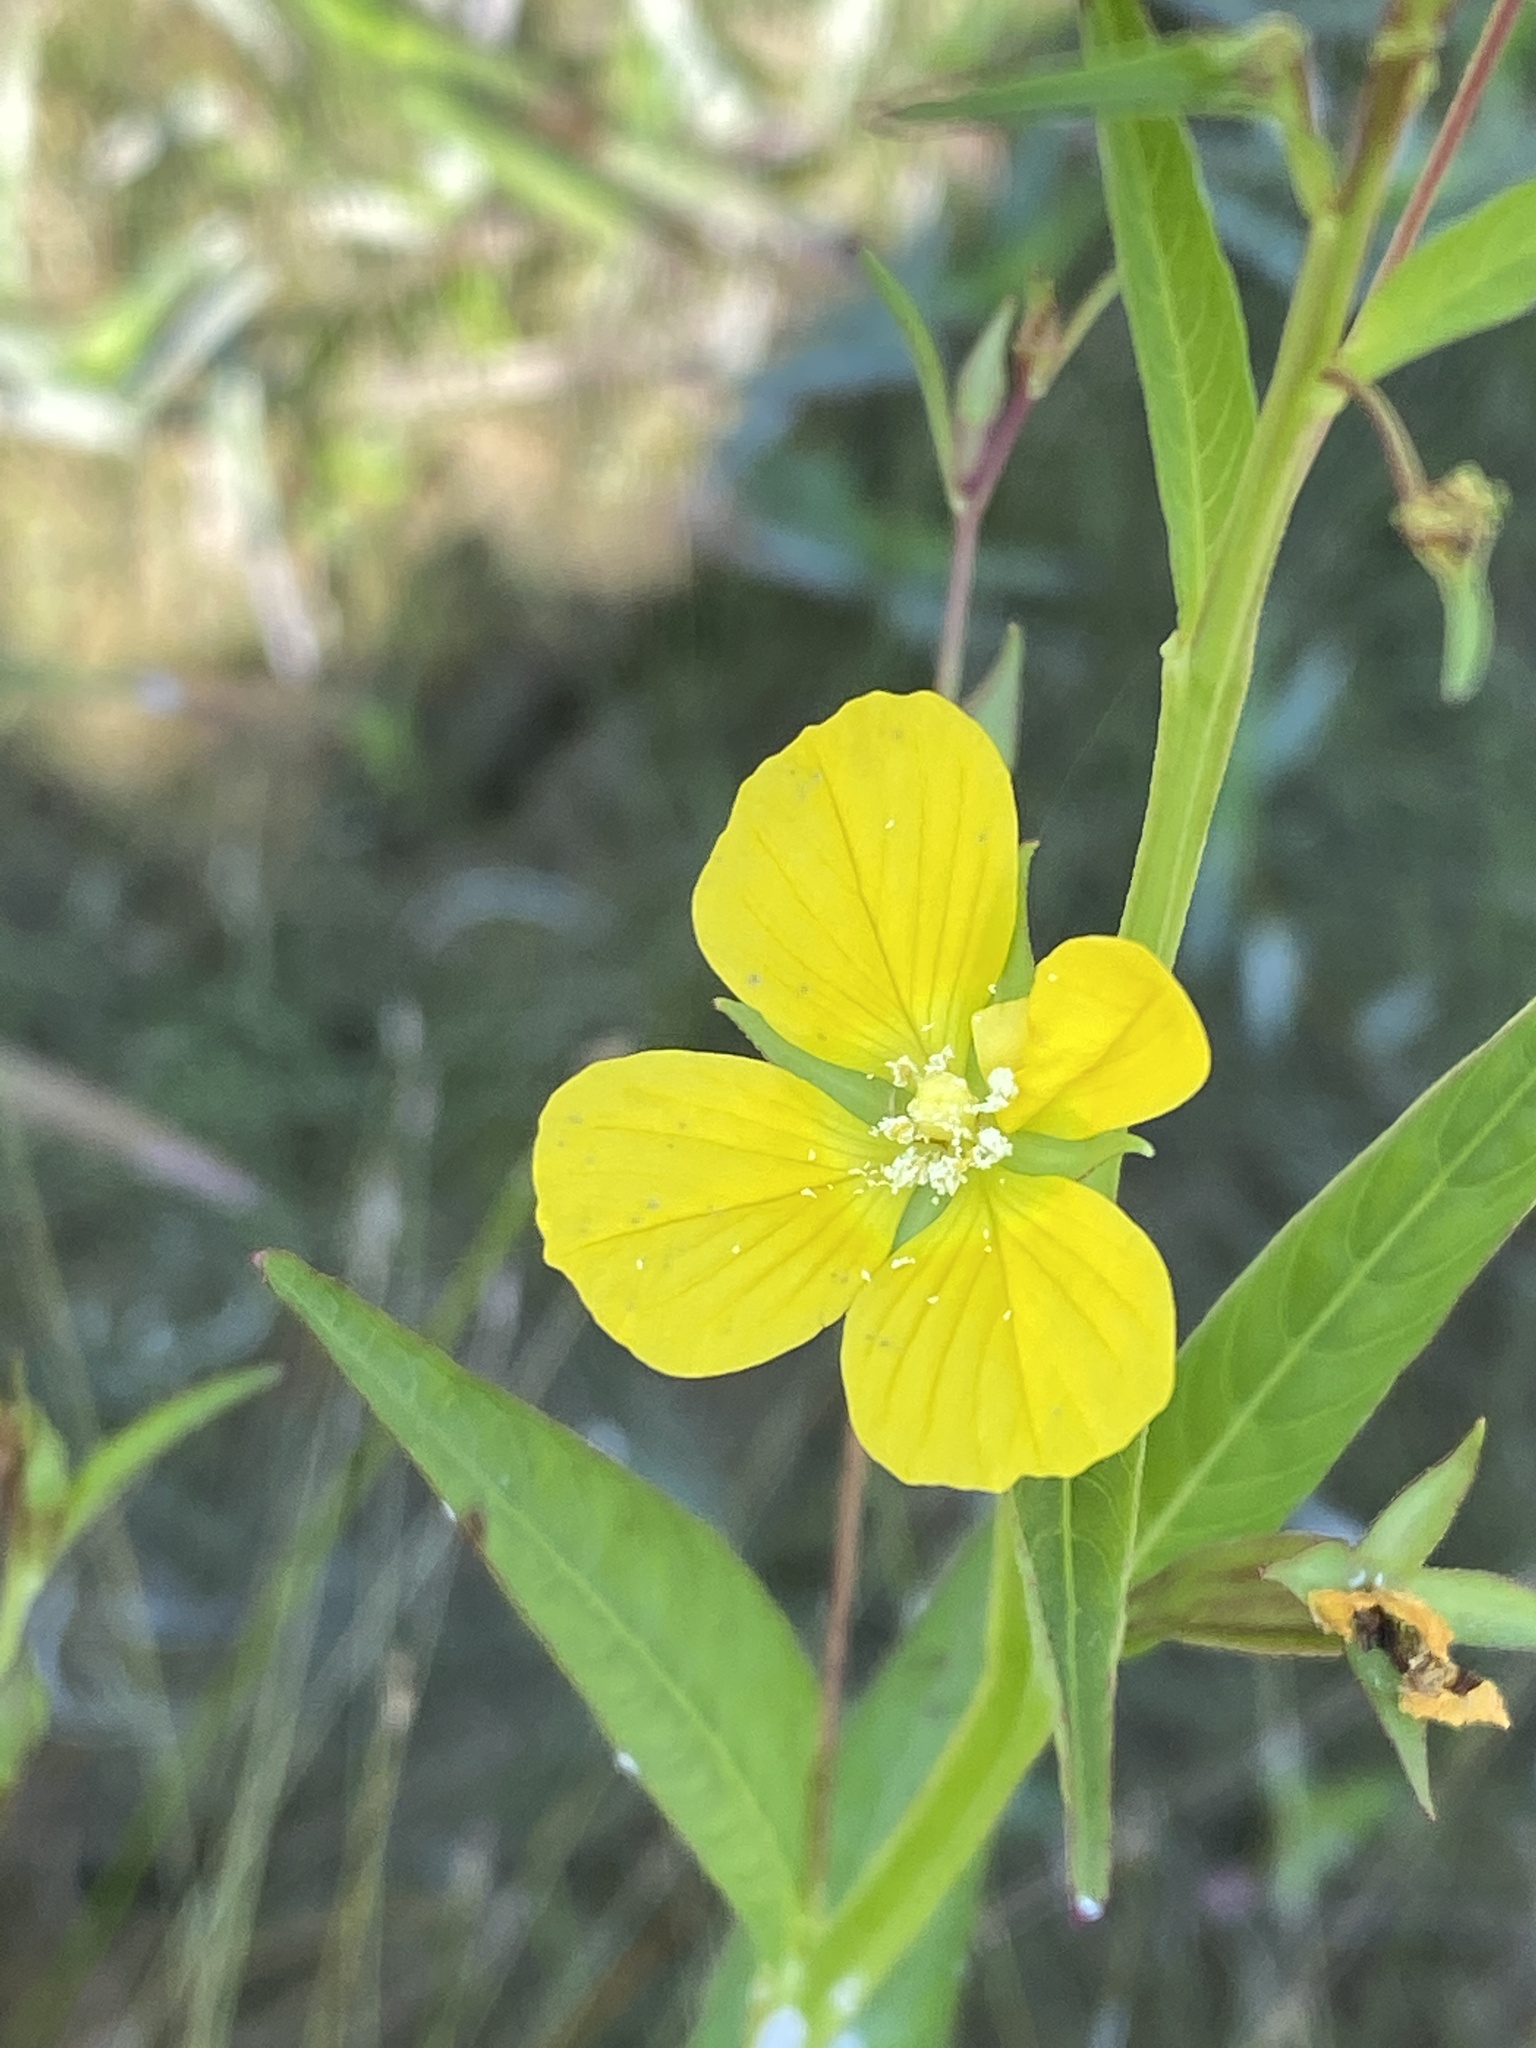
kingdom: Plantae
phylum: Tracheophyta
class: Magnoliopsida
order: Myrtales
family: Onagraceae
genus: Ludwigia
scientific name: Ludwigia decurrens
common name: Winged water-primrose
